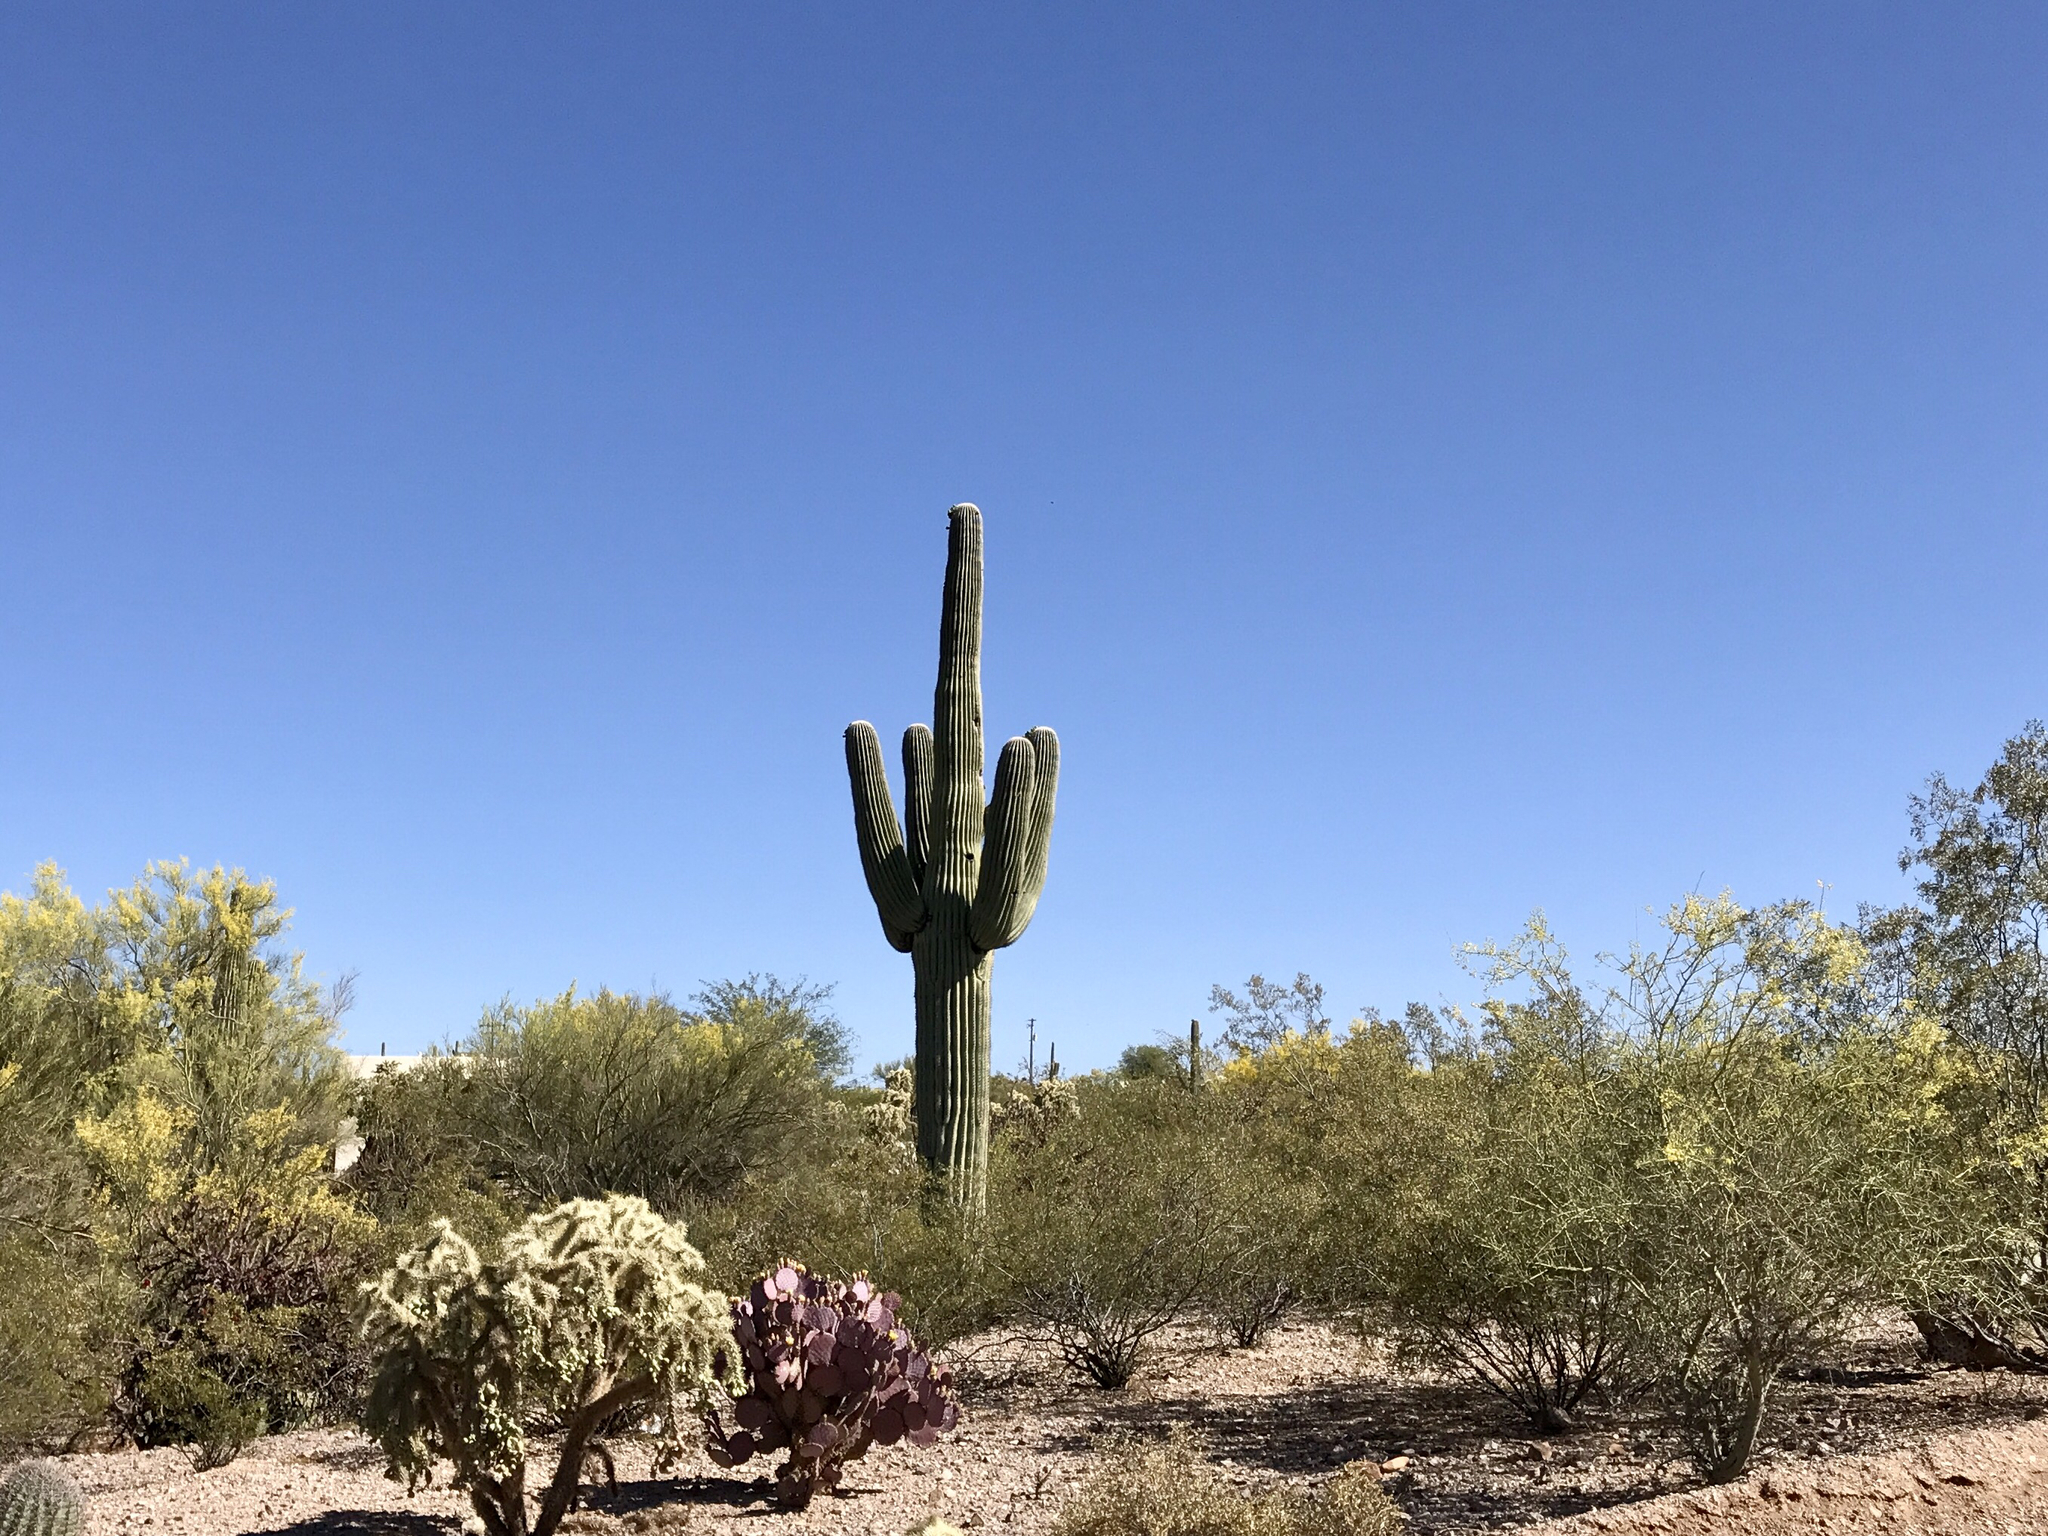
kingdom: Plantae
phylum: Tracheophyta
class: Magnoliopsida
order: Caryophyllales
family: Cactaceae
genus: Carnegiea
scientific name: Carnegiea gigantea
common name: Saguaro
